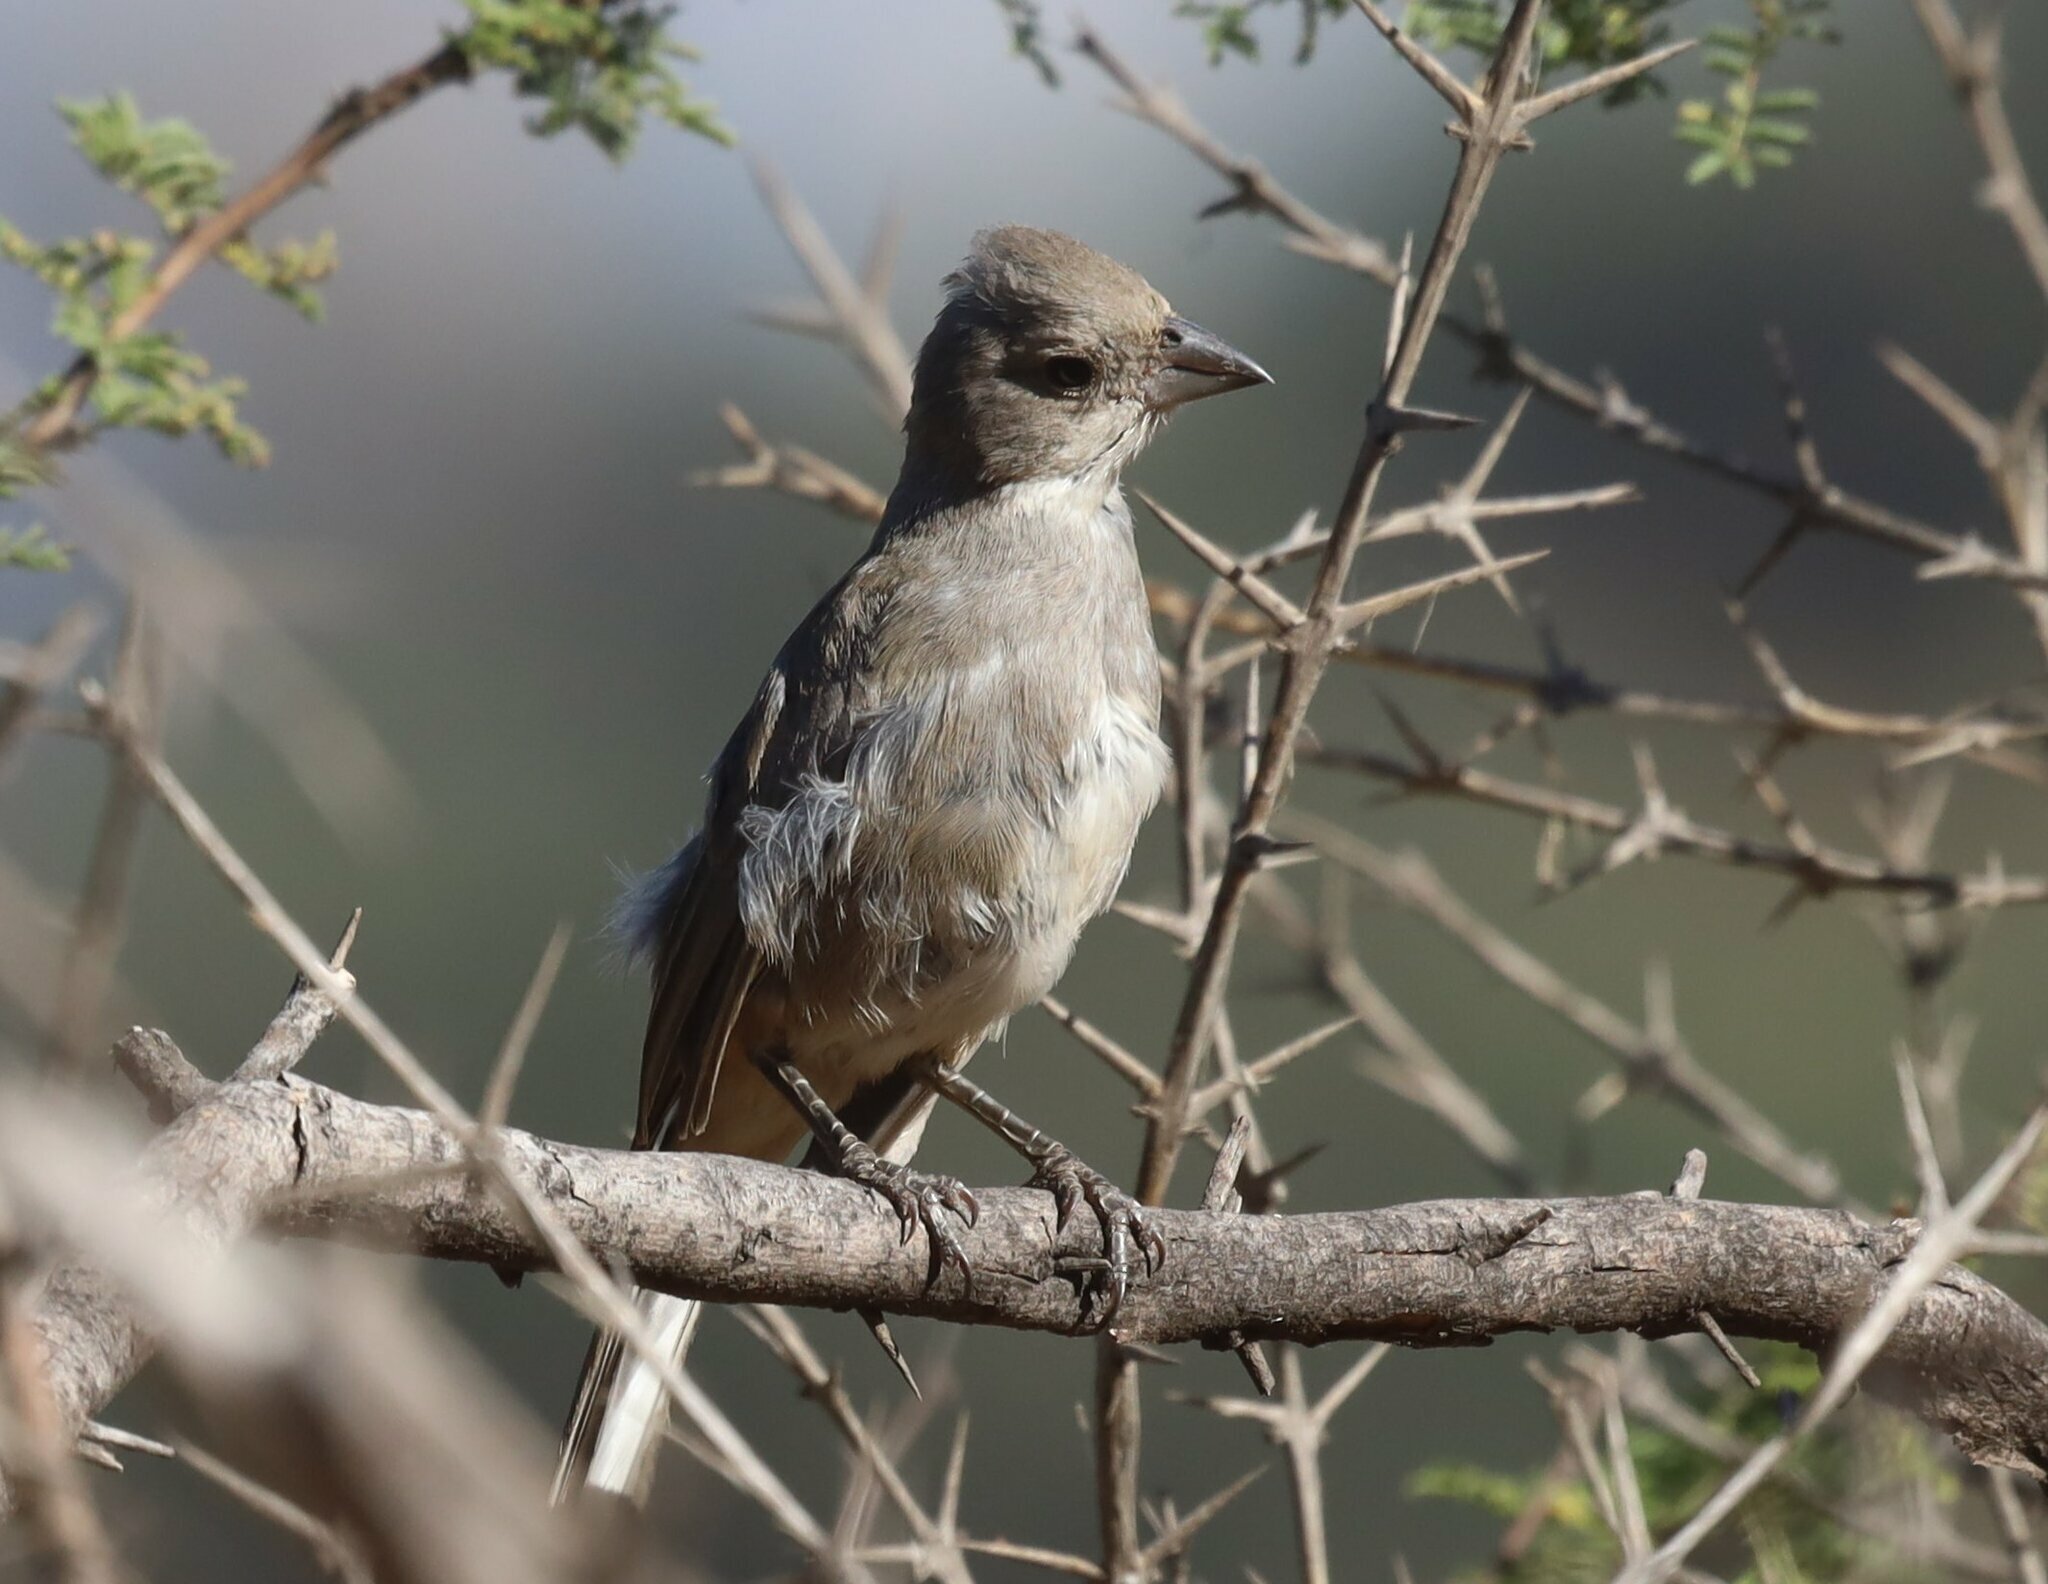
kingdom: Animalia
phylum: Chordata
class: Aves
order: Passeriformes
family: Thraupidae
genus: Diuca
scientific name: Diuca diuca
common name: Common diuca finch
